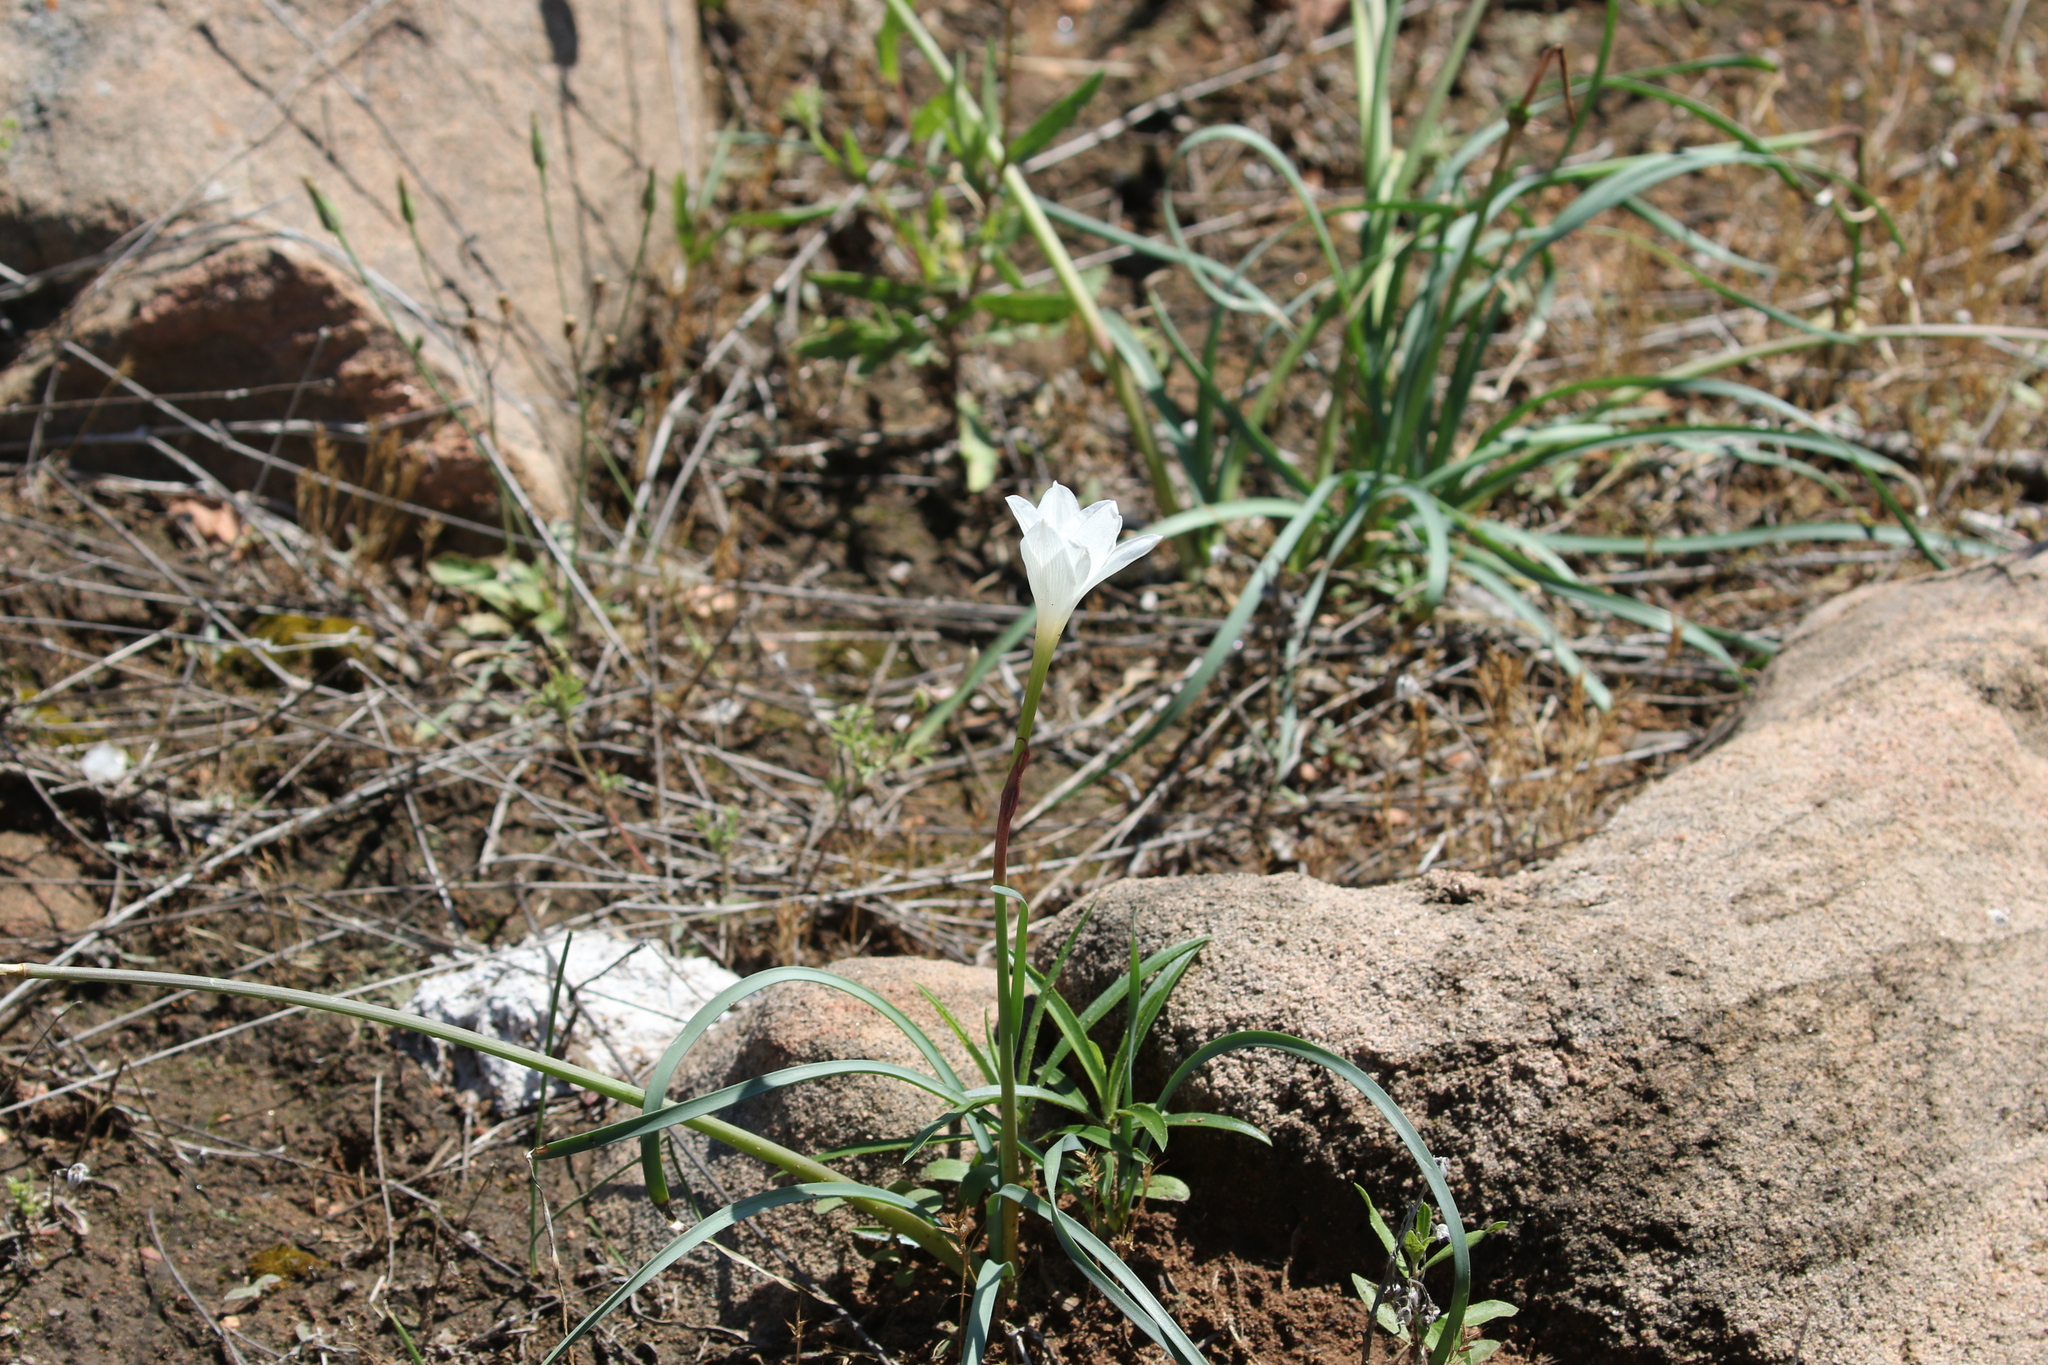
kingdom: Plantae
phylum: Tracheophyta
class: Liliopsida
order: Asparagales
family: Amaryllidaceae
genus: Zephyranthes
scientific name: Zephyranthes drummondii
